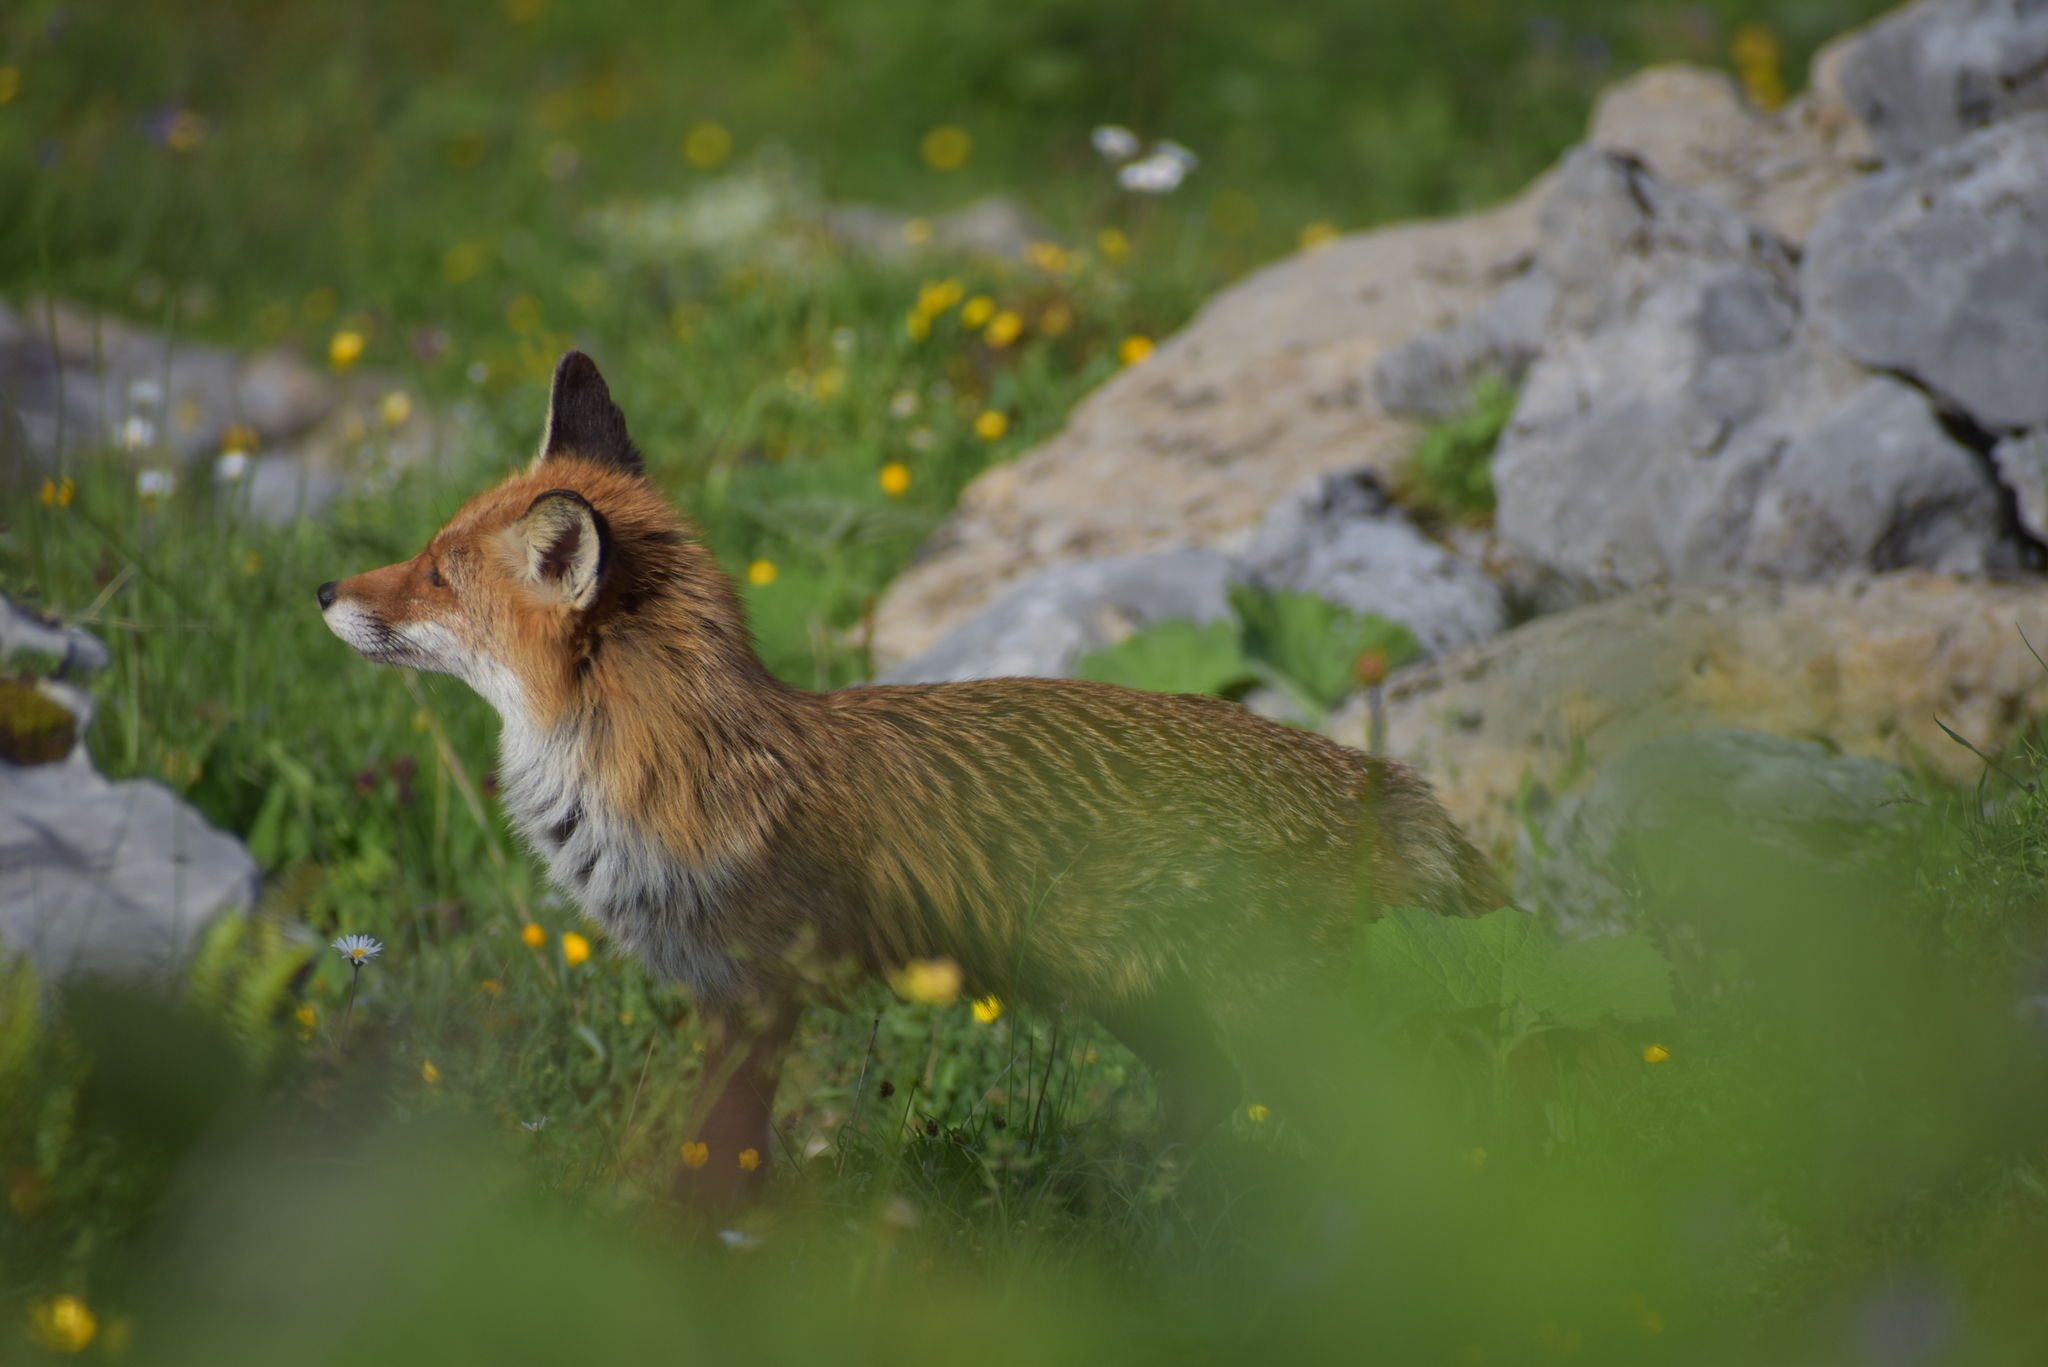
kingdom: Animalia
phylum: Chordata
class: Mammalia
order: Carnivora
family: Canidae
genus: Vulpes
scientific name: Vulpes vulpes
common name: Red fox
